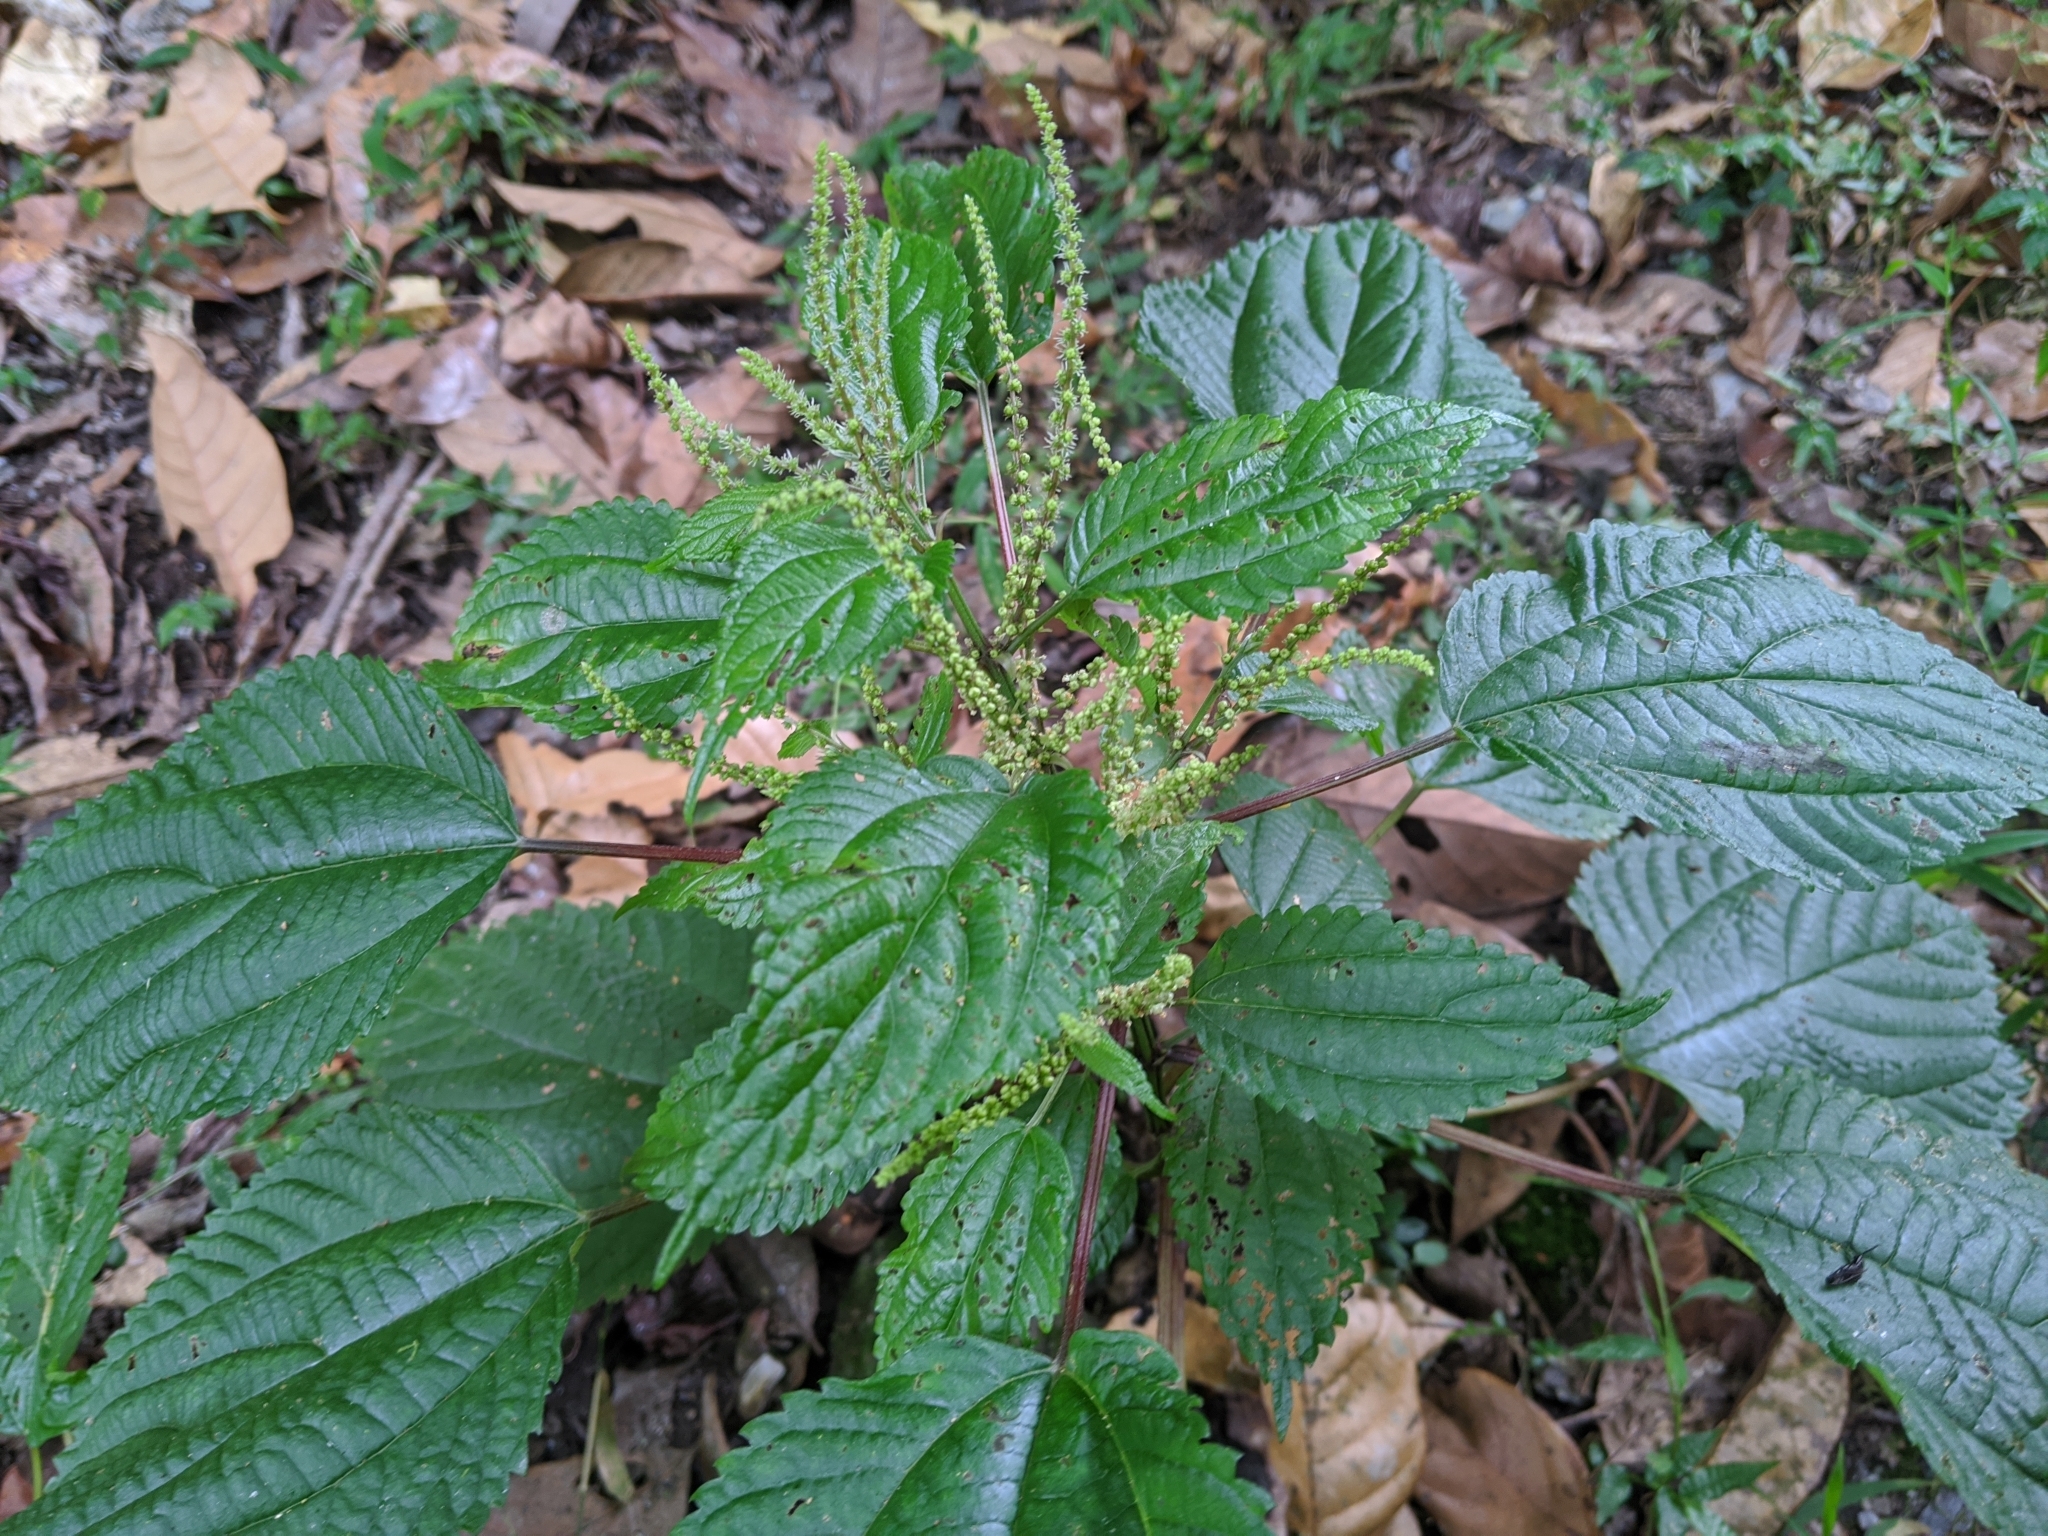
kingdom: Plantae
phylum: Tracheophyta
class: Magnoliopsida
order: Rosales
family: Urticaceae
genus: Boehmeria
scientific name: Boehmeria sieboldiana
